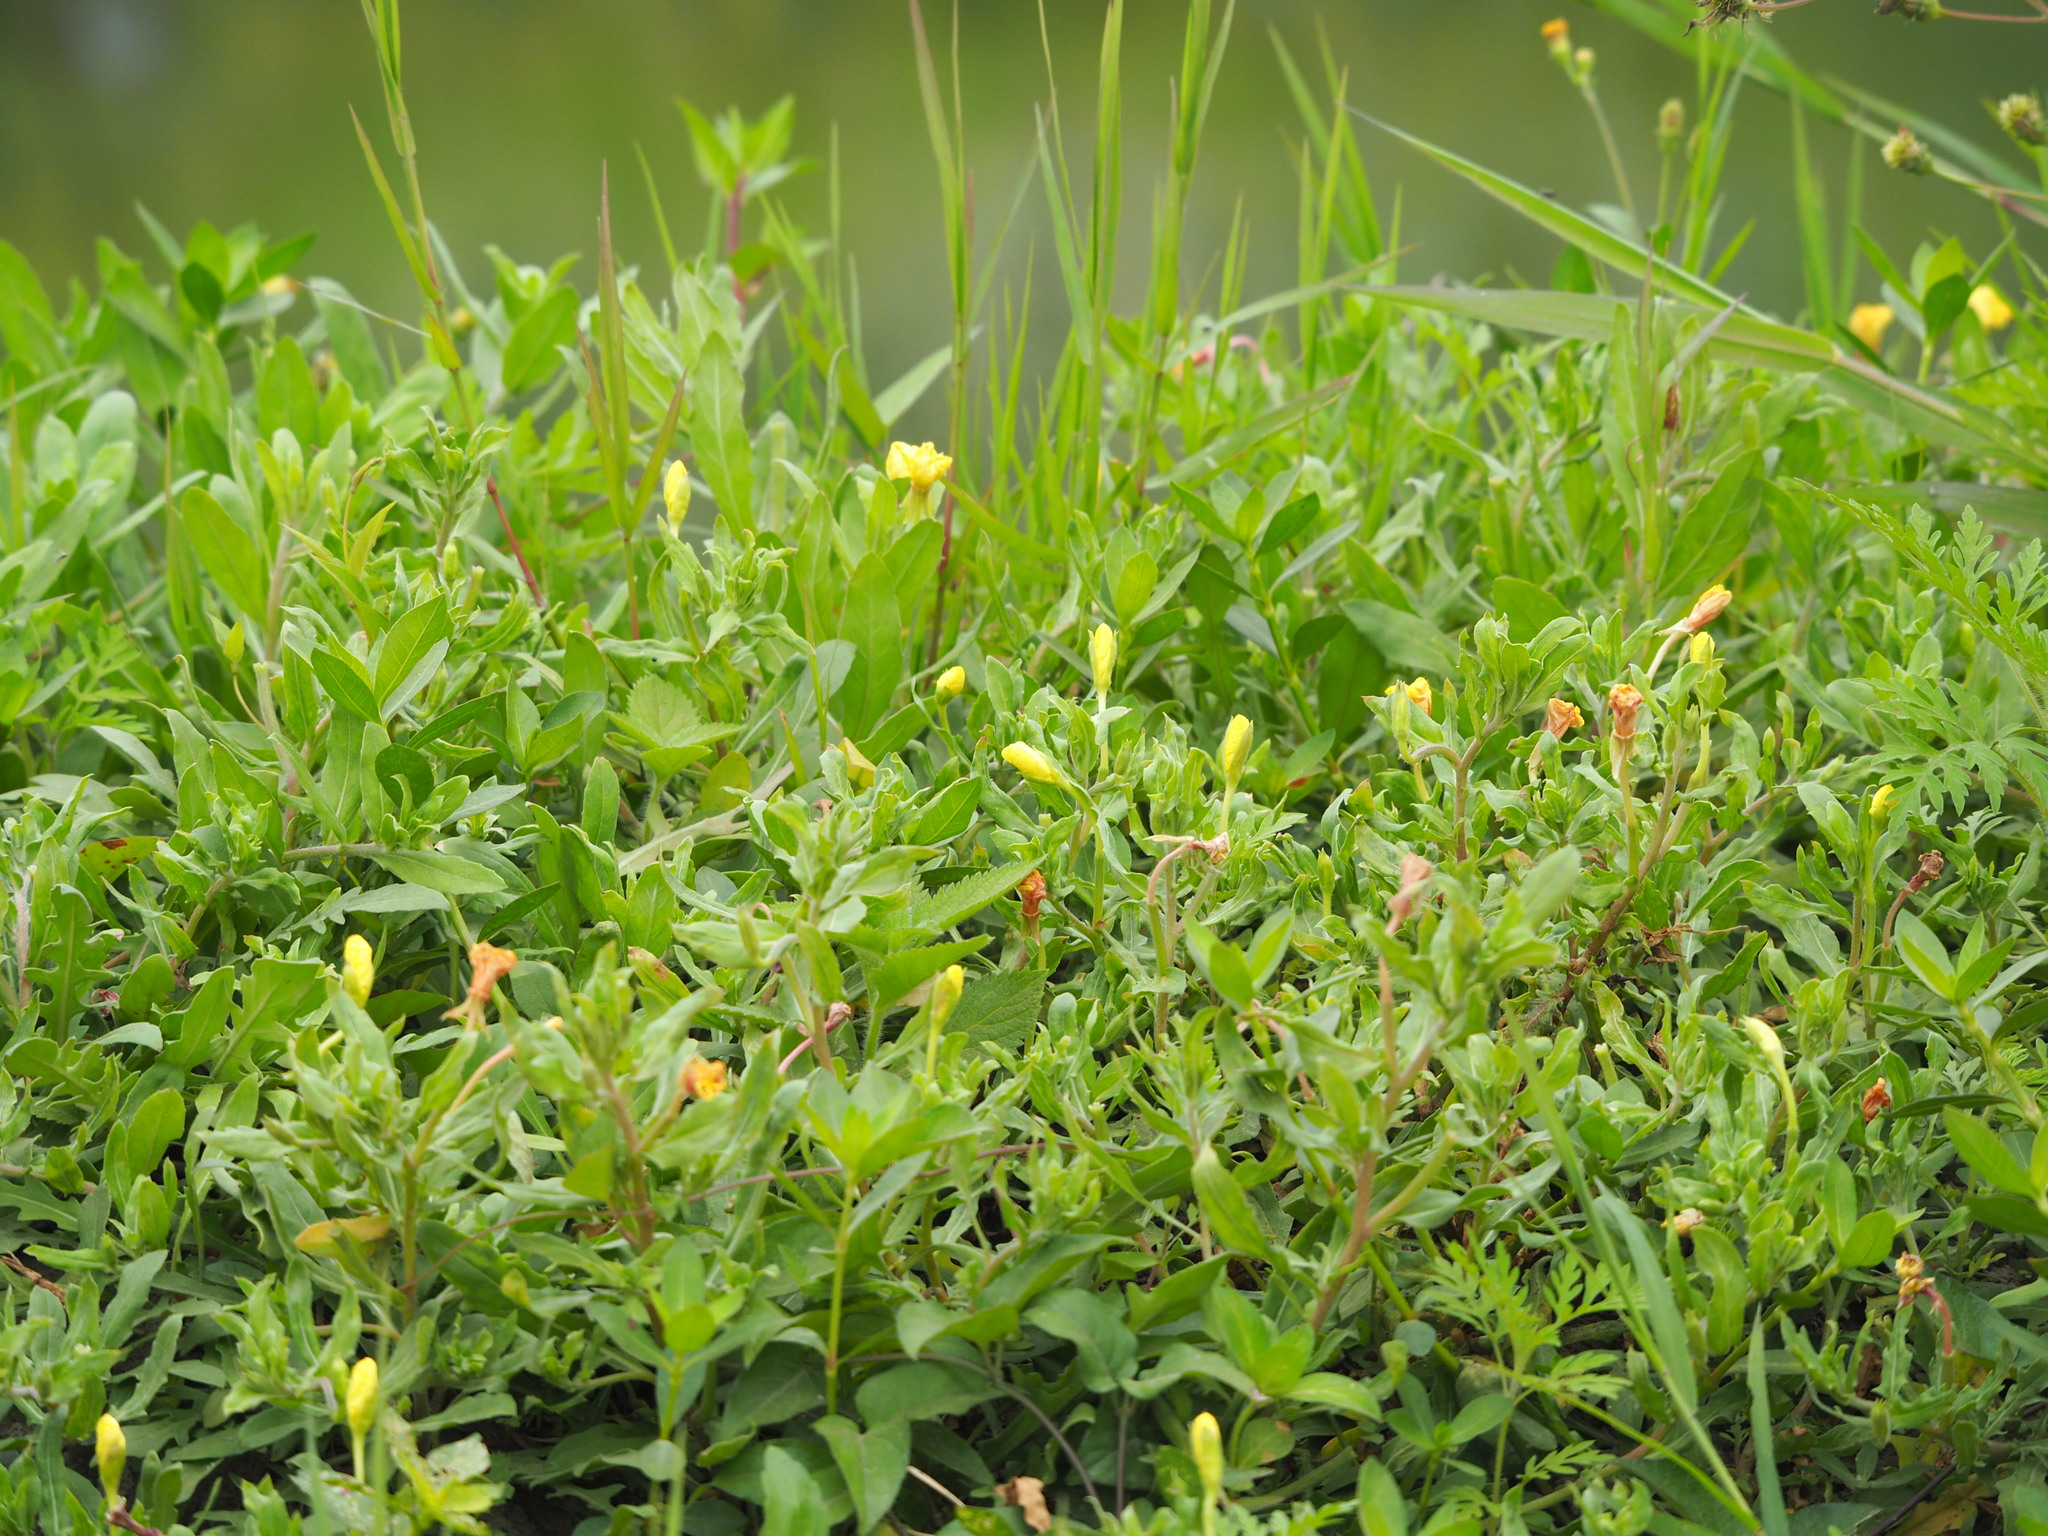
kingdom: Plantae
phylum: Tracheophyta
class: Magnoliopsida
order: Myrtales
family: Onagraceae
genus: Oenothera
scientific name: Oenothera laciniata
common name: Cut-leaved evening-primrose
